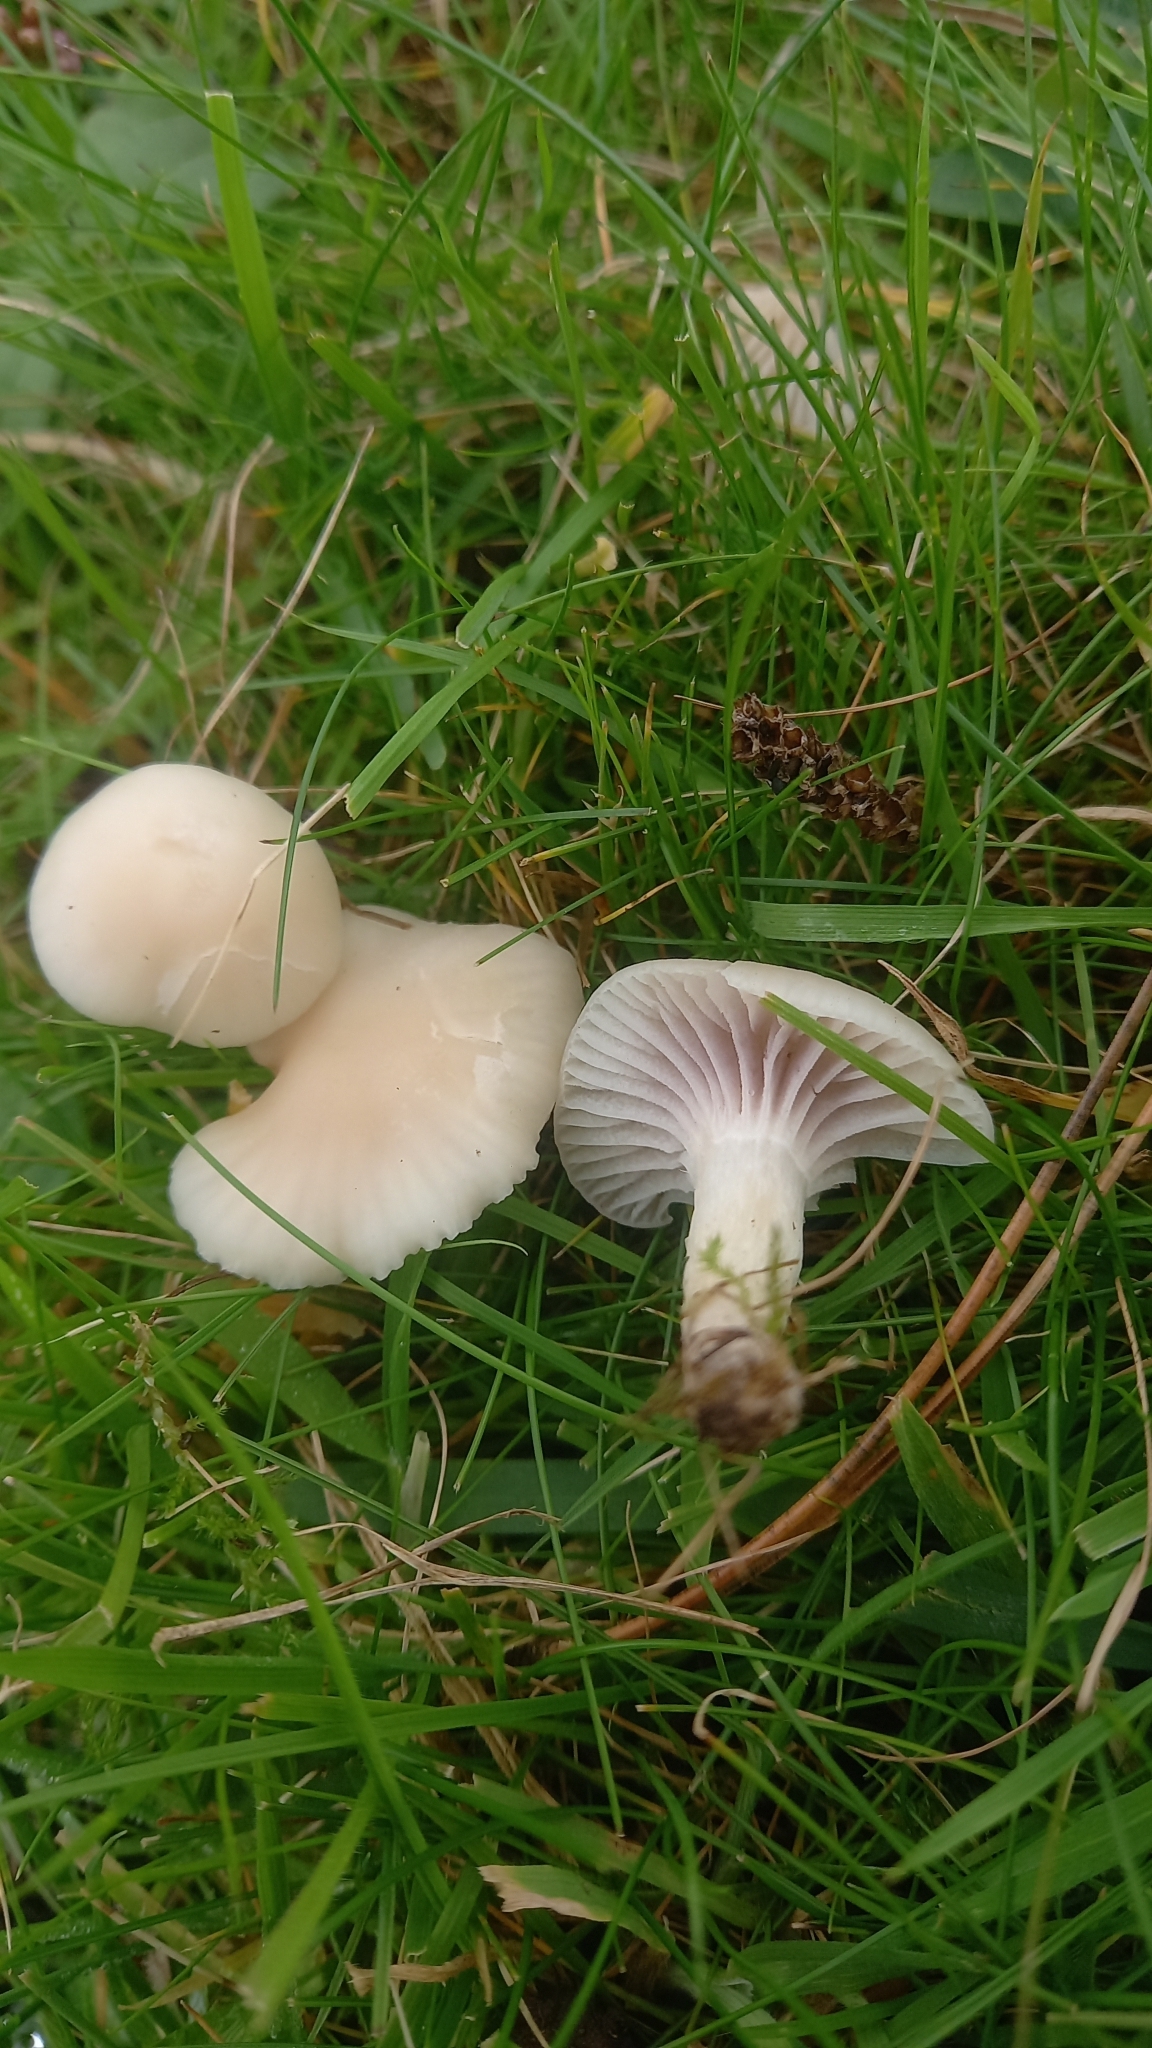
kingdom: Fungi
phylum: Basidiomycota
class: Agaricomycetes
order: Agaricales
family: Hygrophoraceae
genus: Cuphophyllus
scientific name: Cuphophyllus virgineus
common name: Snowy waxcap
